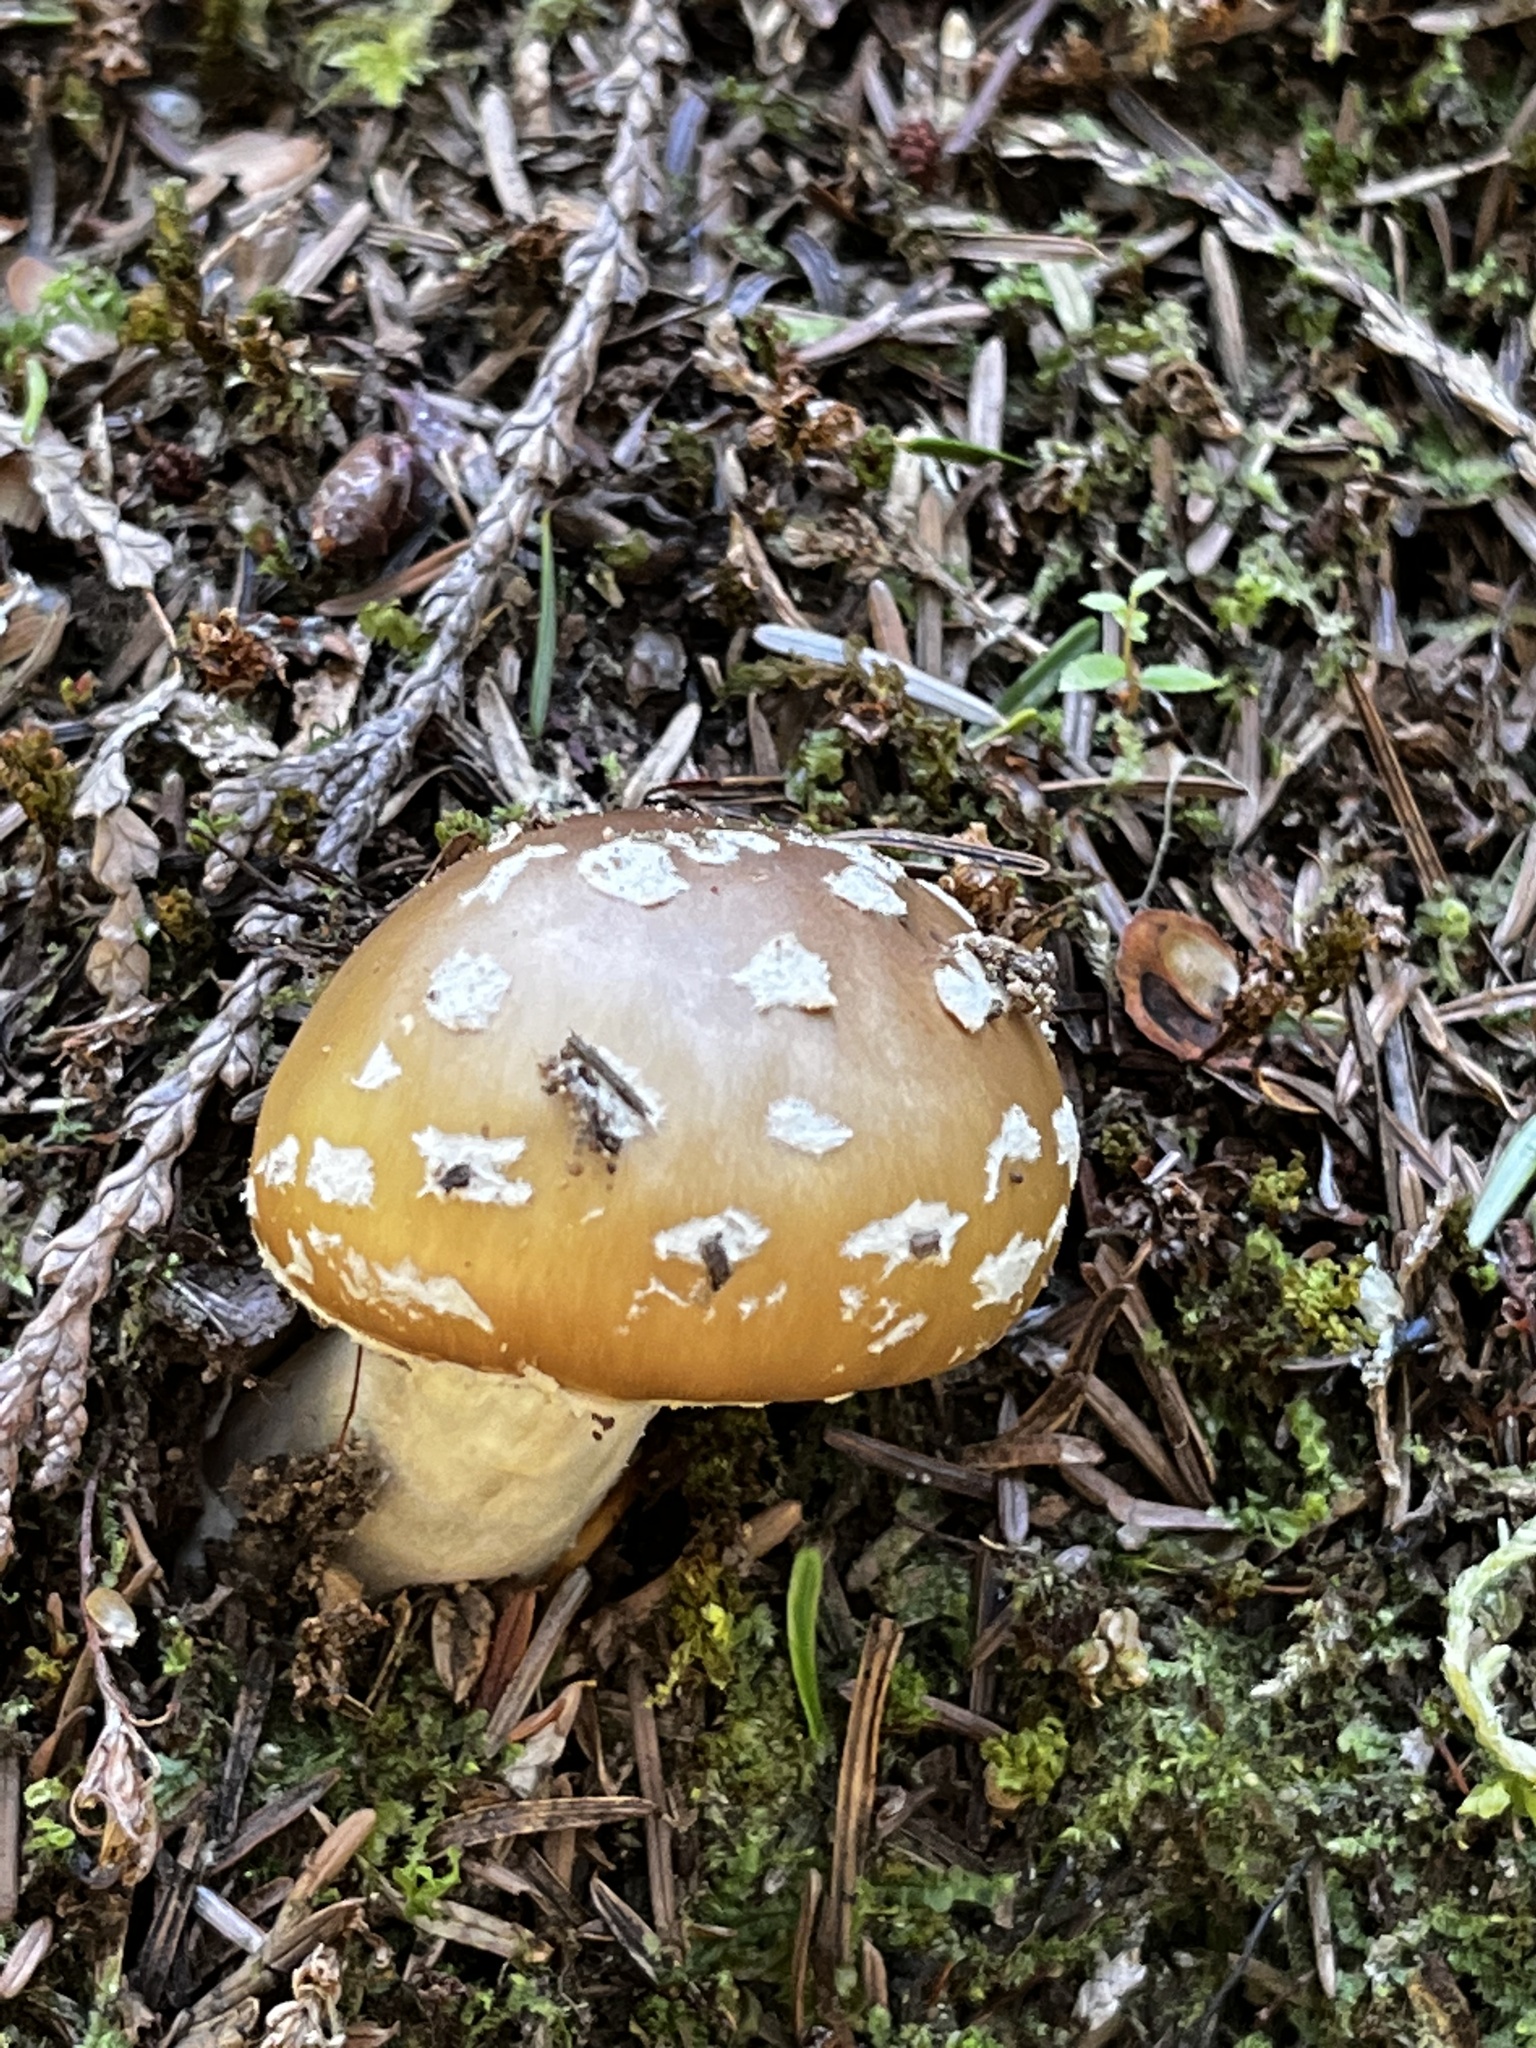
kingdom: Fungi
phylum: Basidiomycota
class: Agaricomycetes
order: Agaricales
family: Amanitaceae
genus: Amanita
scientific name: Amanita pantherinoides
